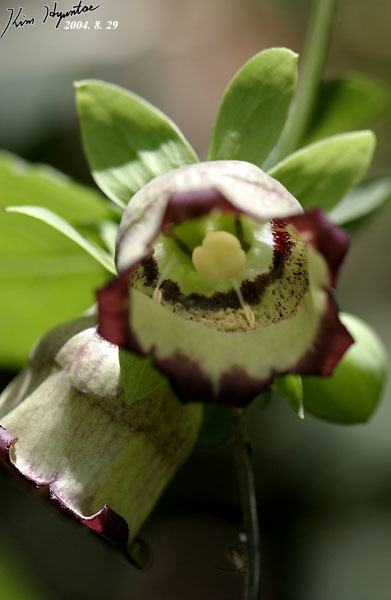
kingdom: Plantae
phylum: Tracheophyta
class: Magnoliopsida
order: Asterales
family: Campanulaceae
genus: Codonopsis
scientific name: Codonopsis lanceolata
